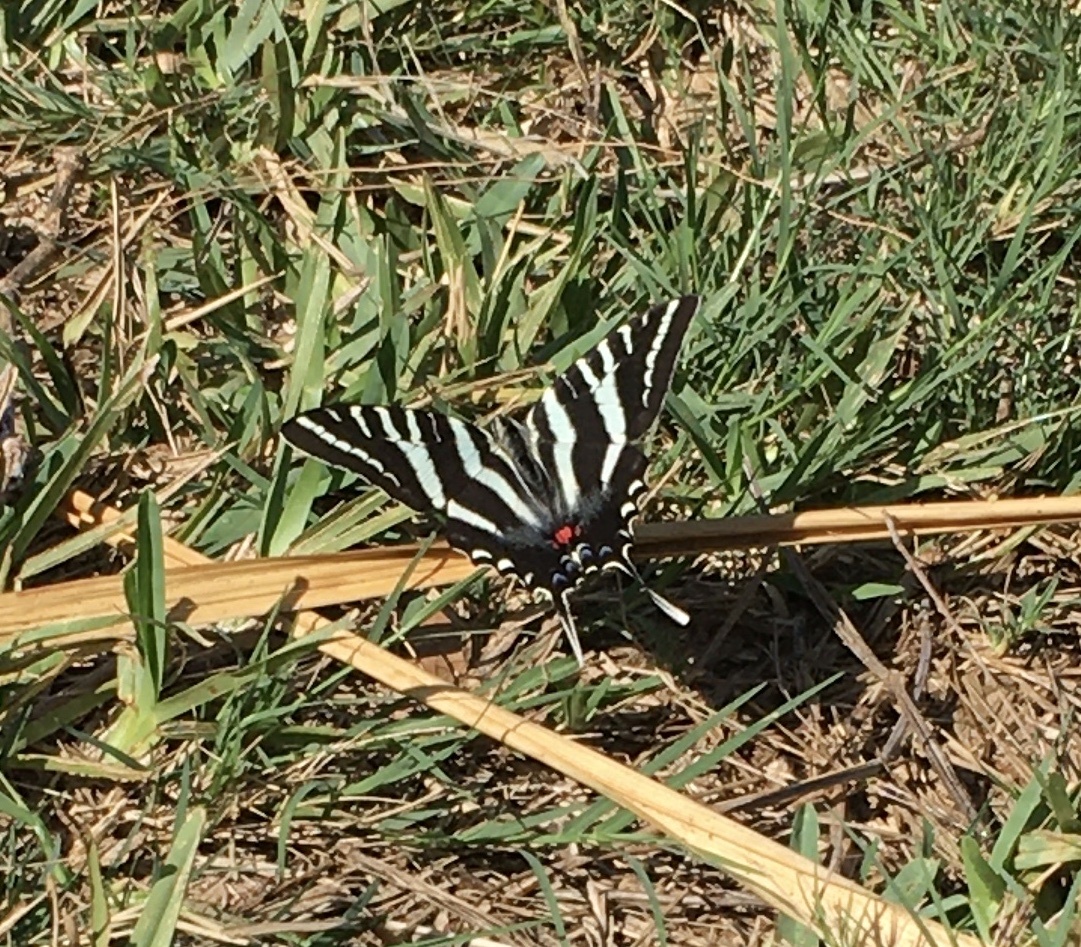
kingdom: Animalia
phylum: Arthropoda
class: Insecta
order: Lepidoptera
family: Papilionidae
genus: Protographium
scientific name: Protographium marcellus
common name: Zebra swallowtail
